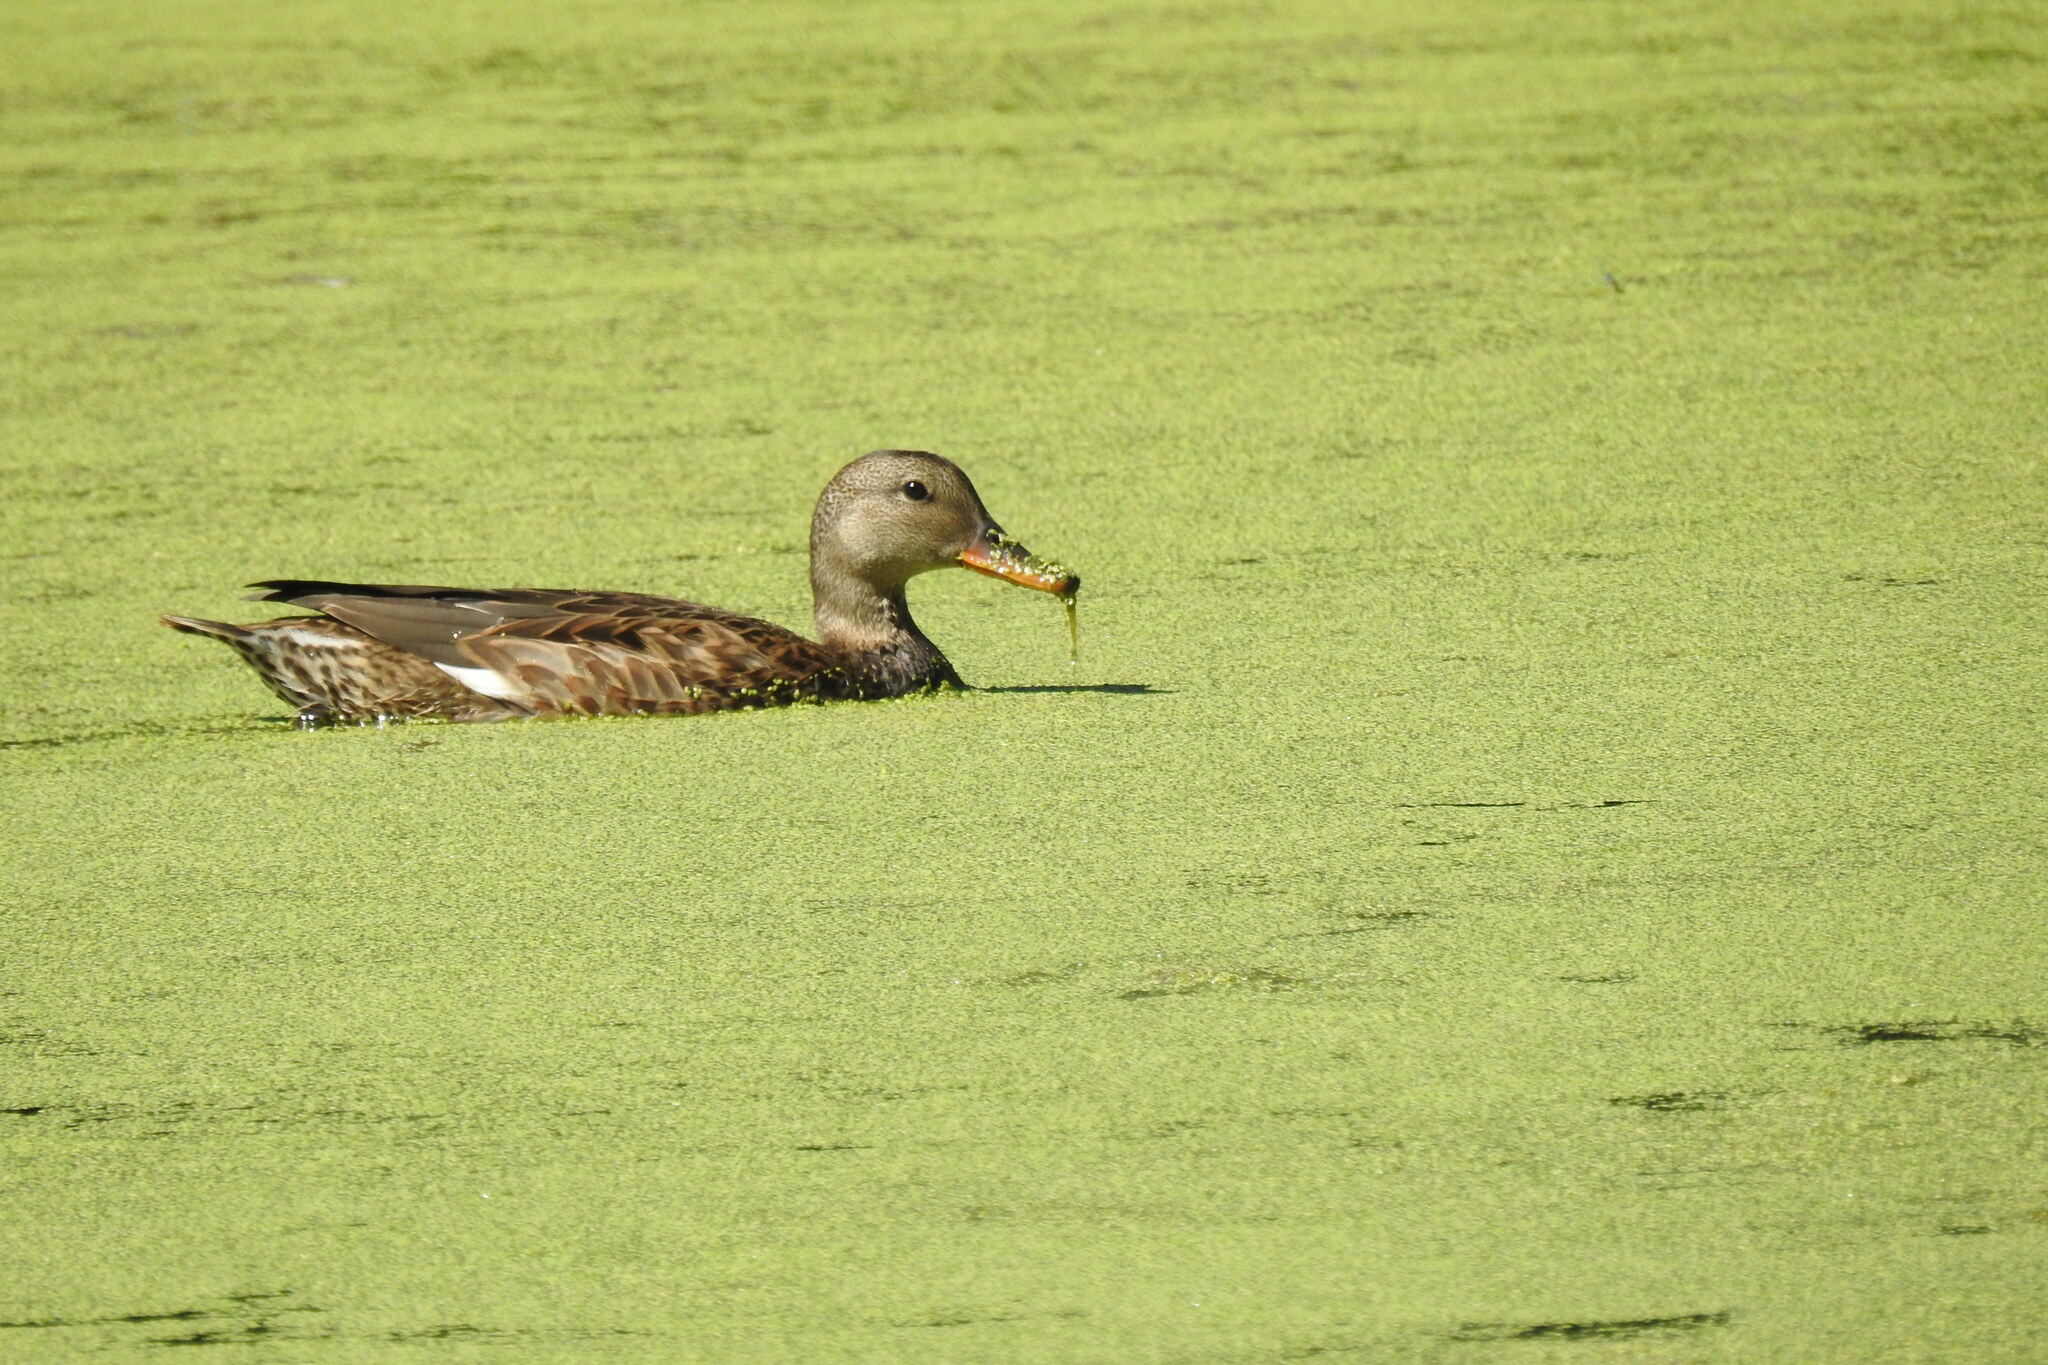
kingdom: Animalia
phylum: Chordata
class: Aves
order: Anseriformes
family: Anatidae
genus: Mareca
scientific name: Mareca strepera
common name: Gadwall
